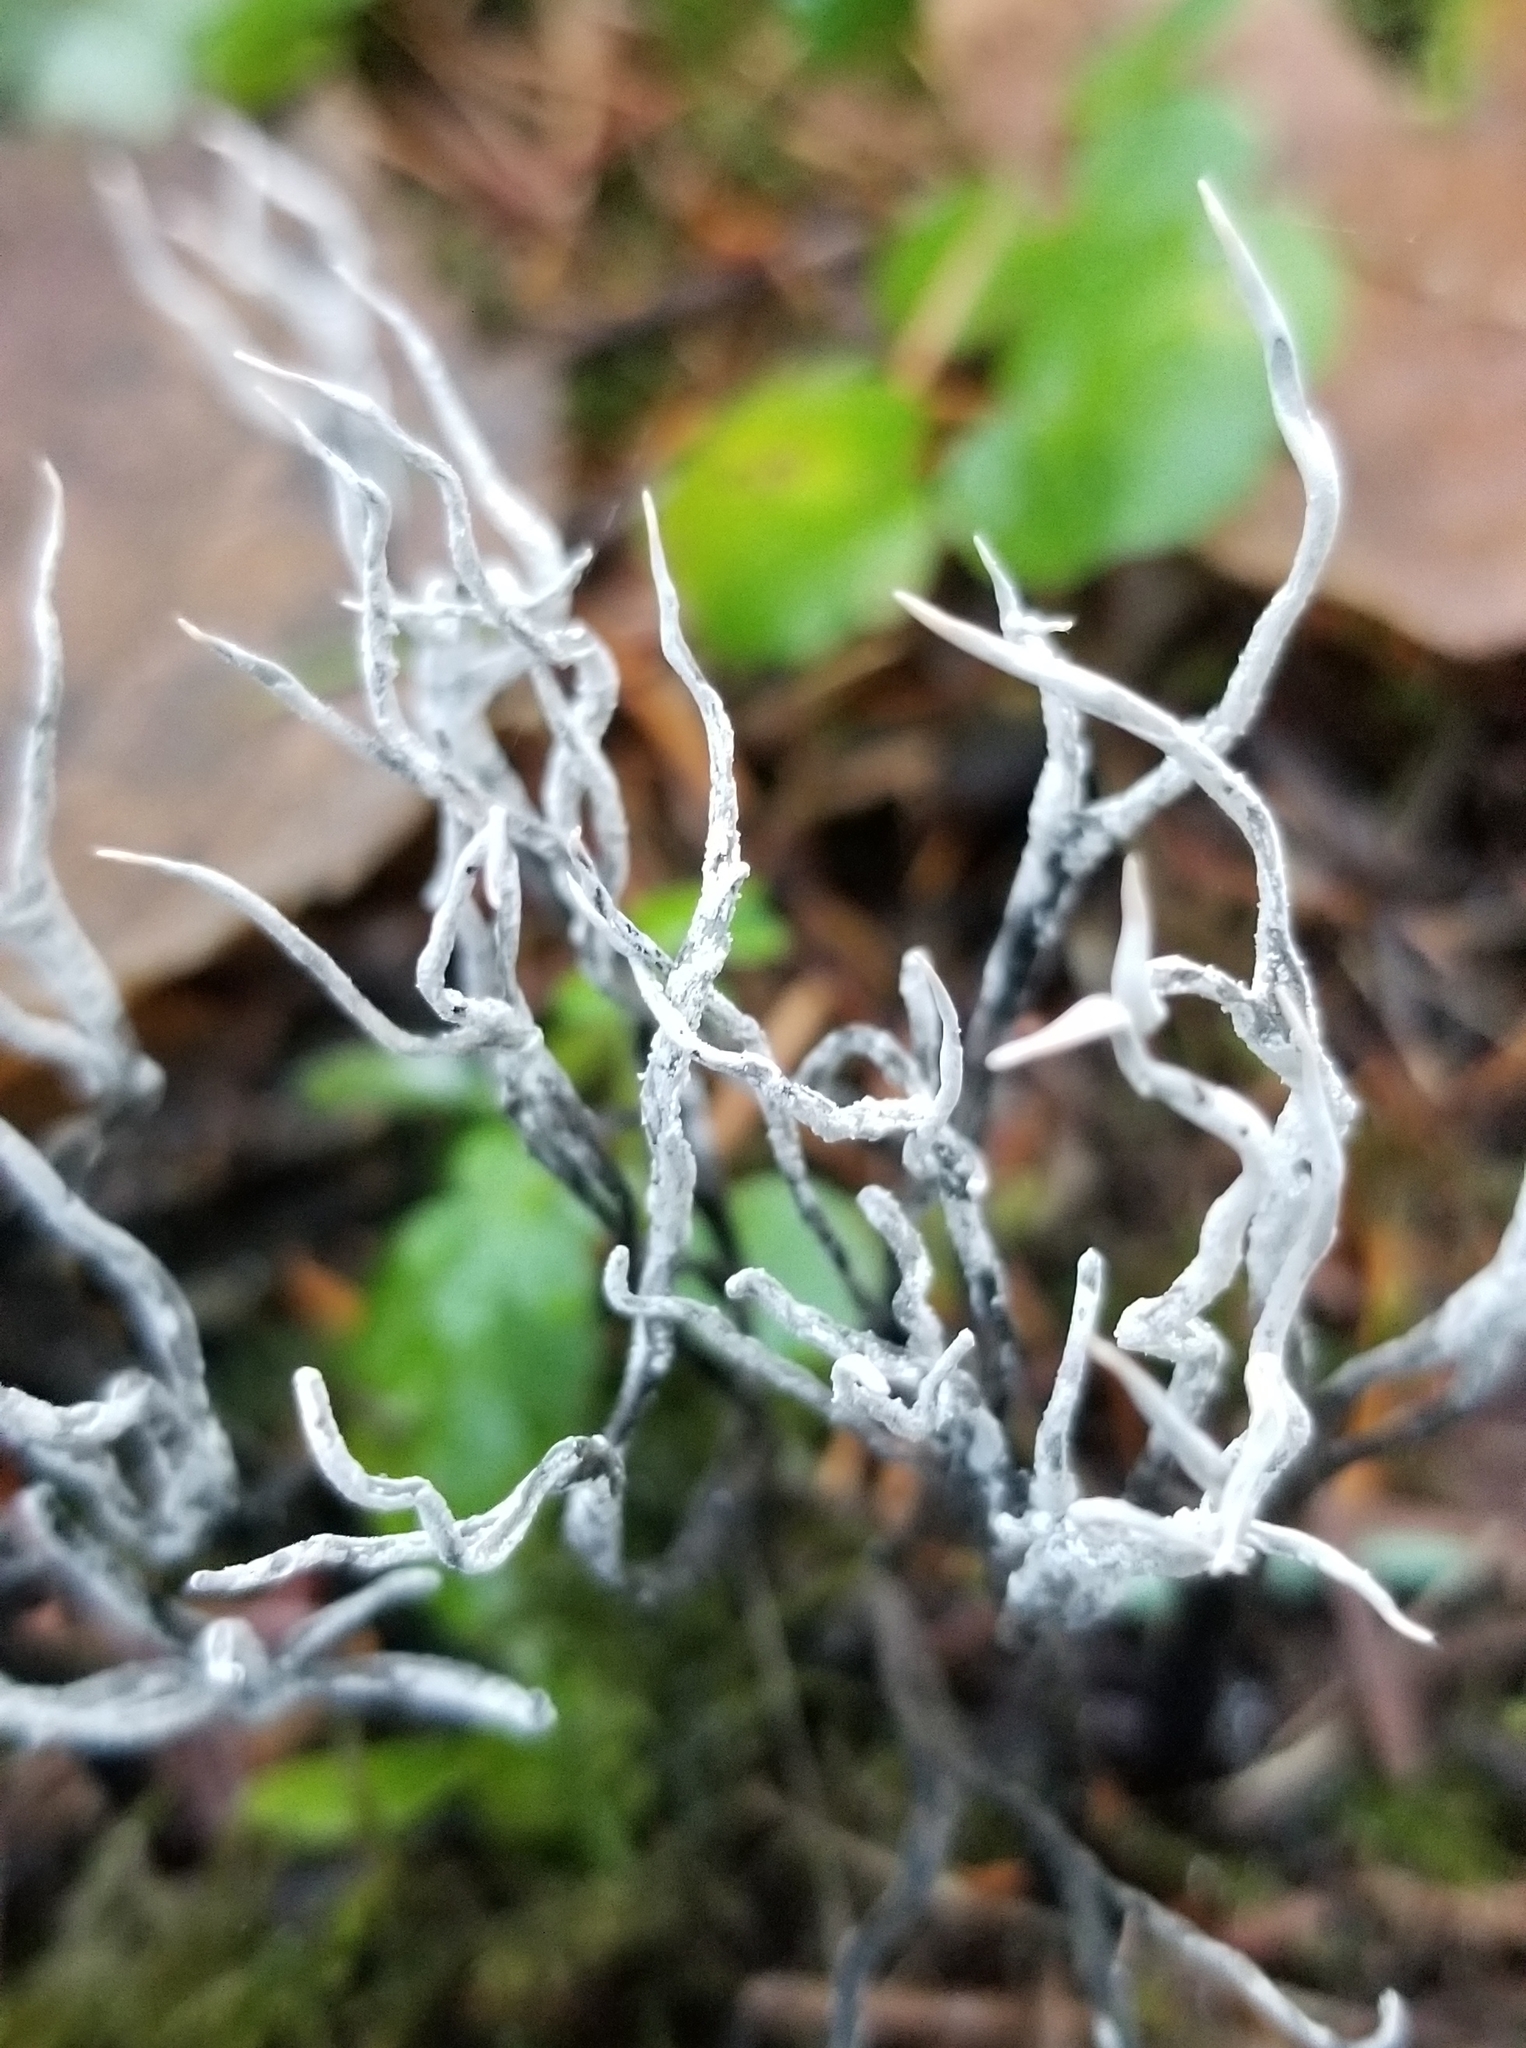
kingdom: Fungi
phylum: Ascomycota
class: Sordariomycetes
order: Xylariales
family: Xylariaceae
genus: Xylaria
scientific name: Xylaria hypoxylon
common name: Candle-snuff fungus
